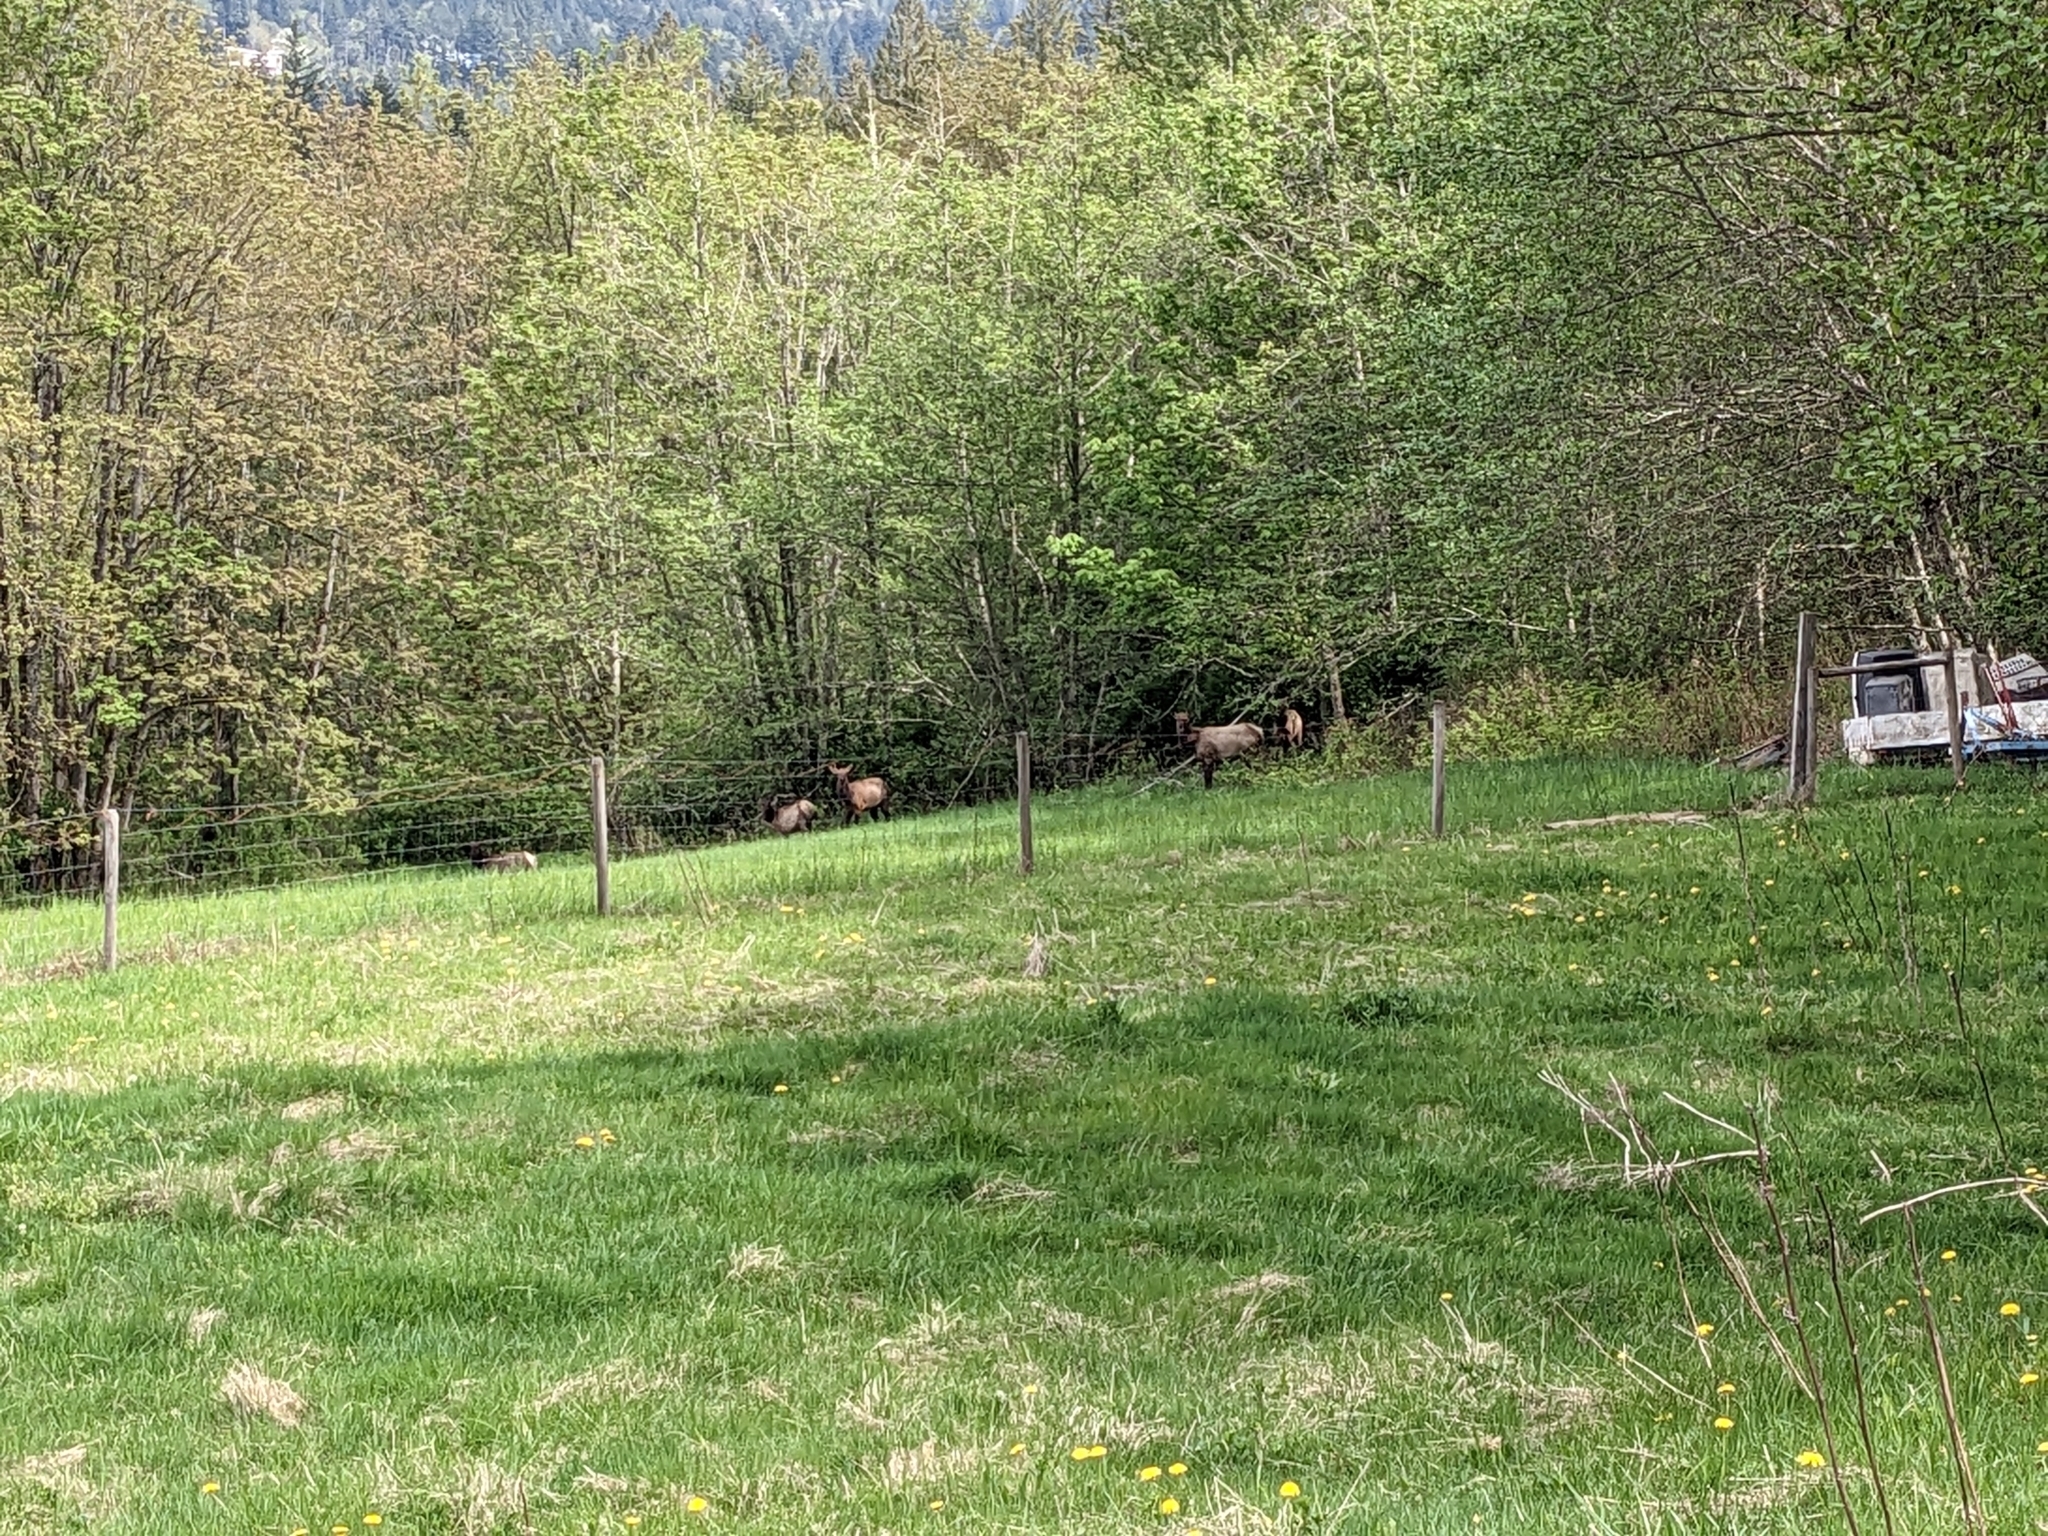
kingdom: Animalia
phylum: Chordata
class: Mammalia
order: Artiodactyla
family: Cervidae
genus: Cervus
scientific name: Cervus elaphus
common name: Red deer
